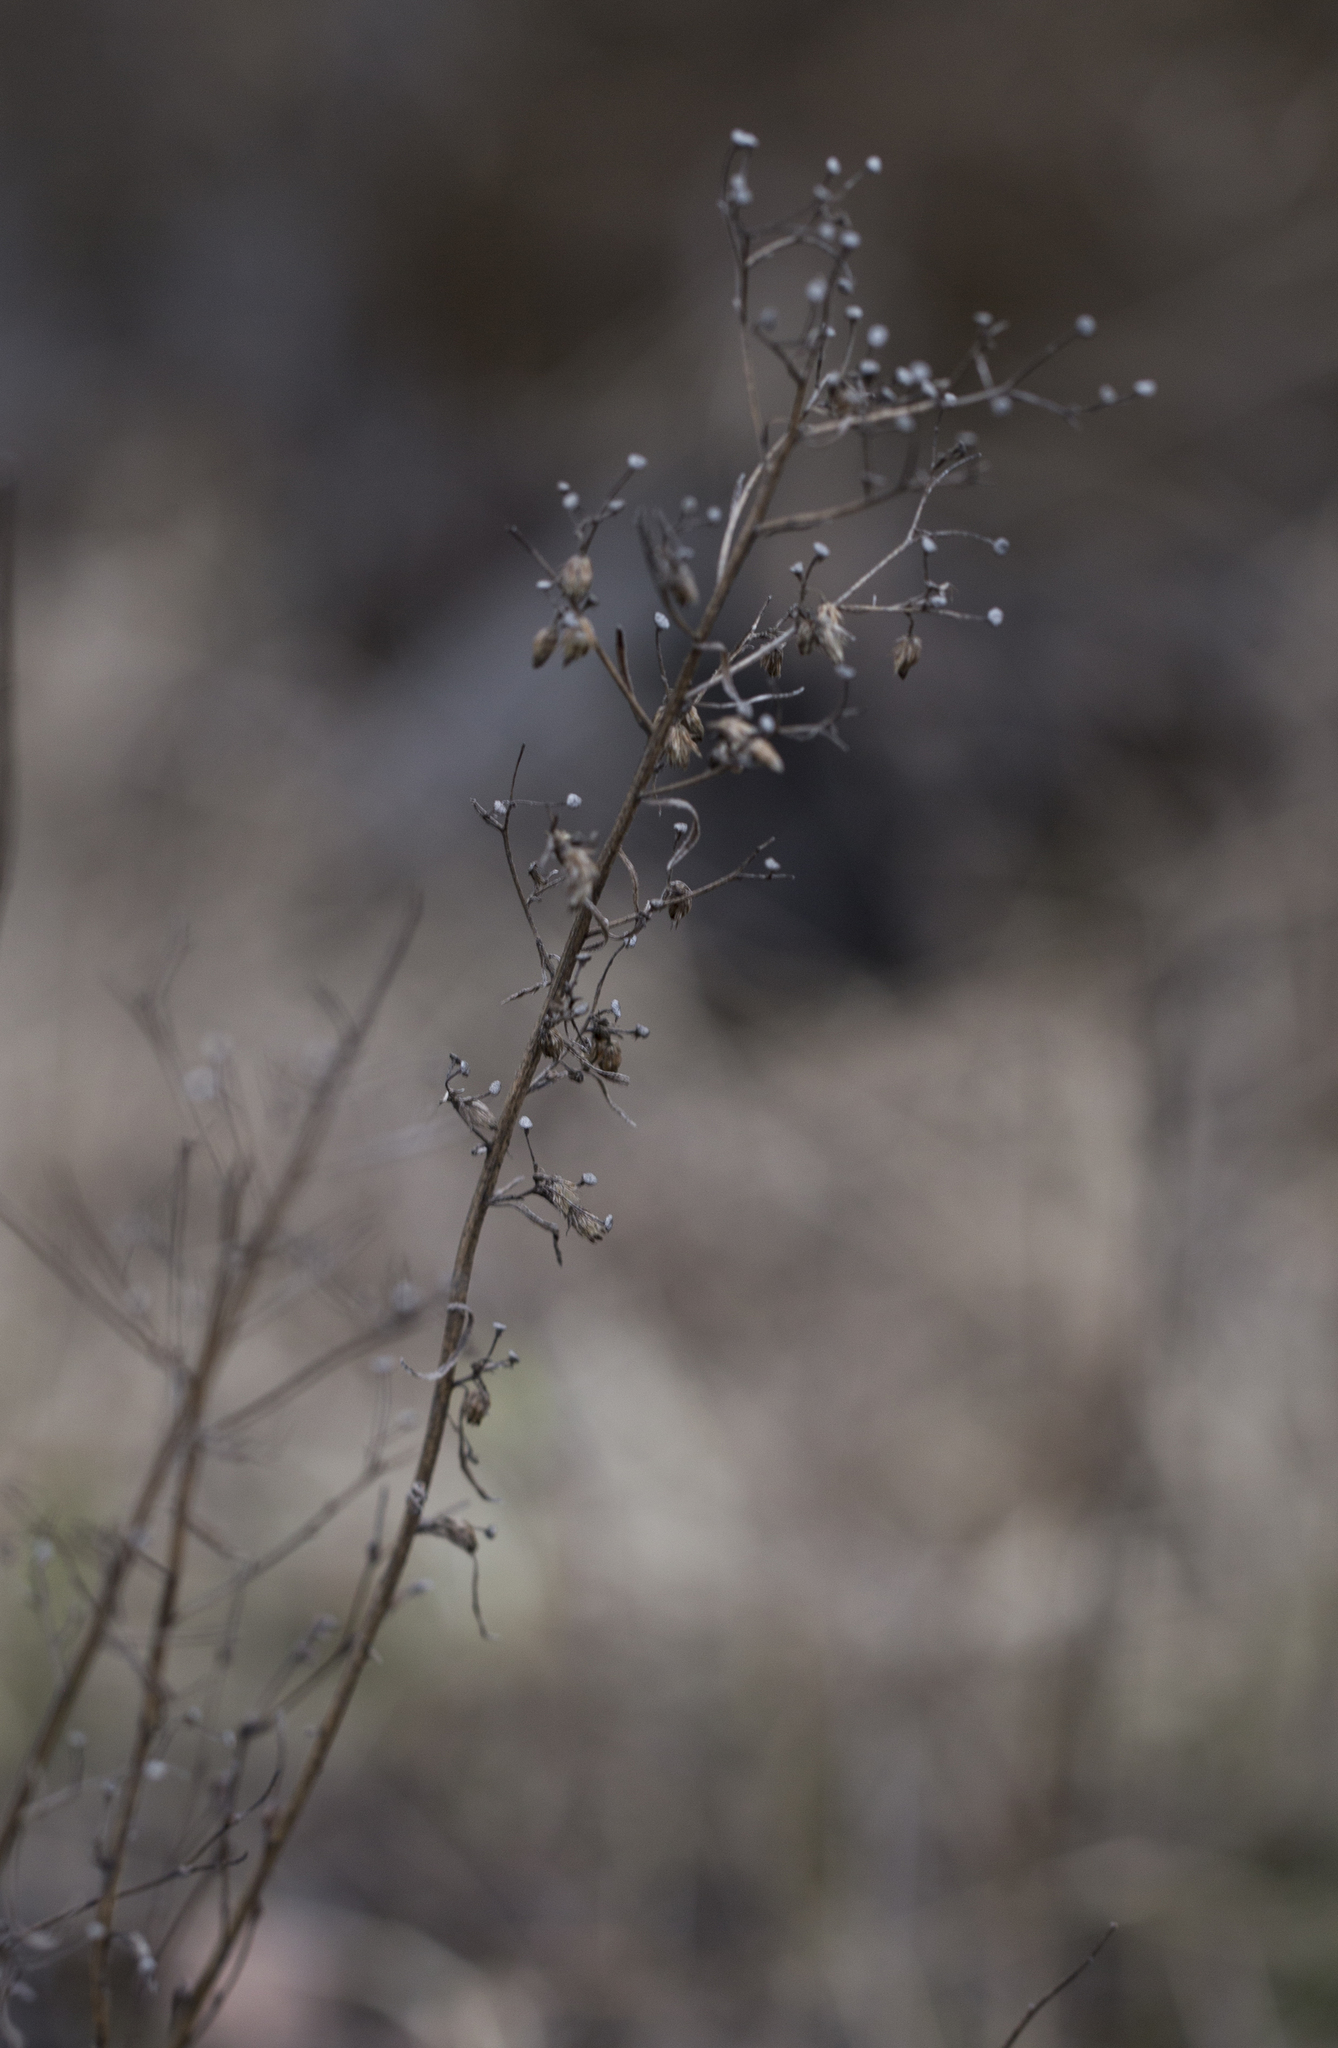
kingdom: Plantae
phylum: Tracheophyta
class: Magnoliopsida
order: Asterales
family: Asteraceae
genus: Erigeron
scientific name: Erigeron canadensis
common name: Canadian fleabane
